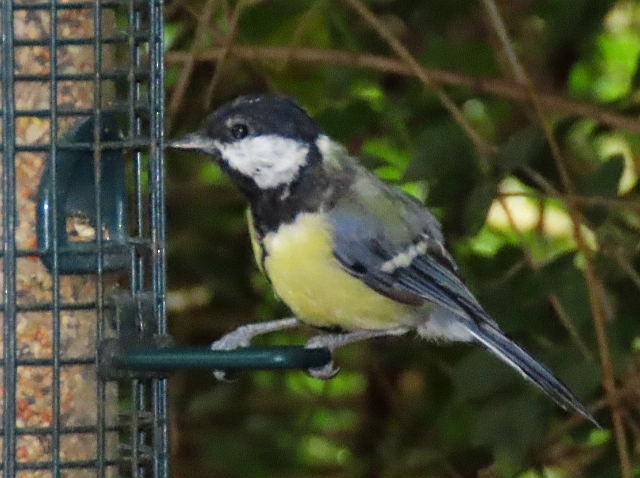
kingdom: Animalia
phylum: Chordata
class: Aves
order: Passeriformes
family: Paridae
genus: Parus
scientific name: Parus major
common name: Great tit
